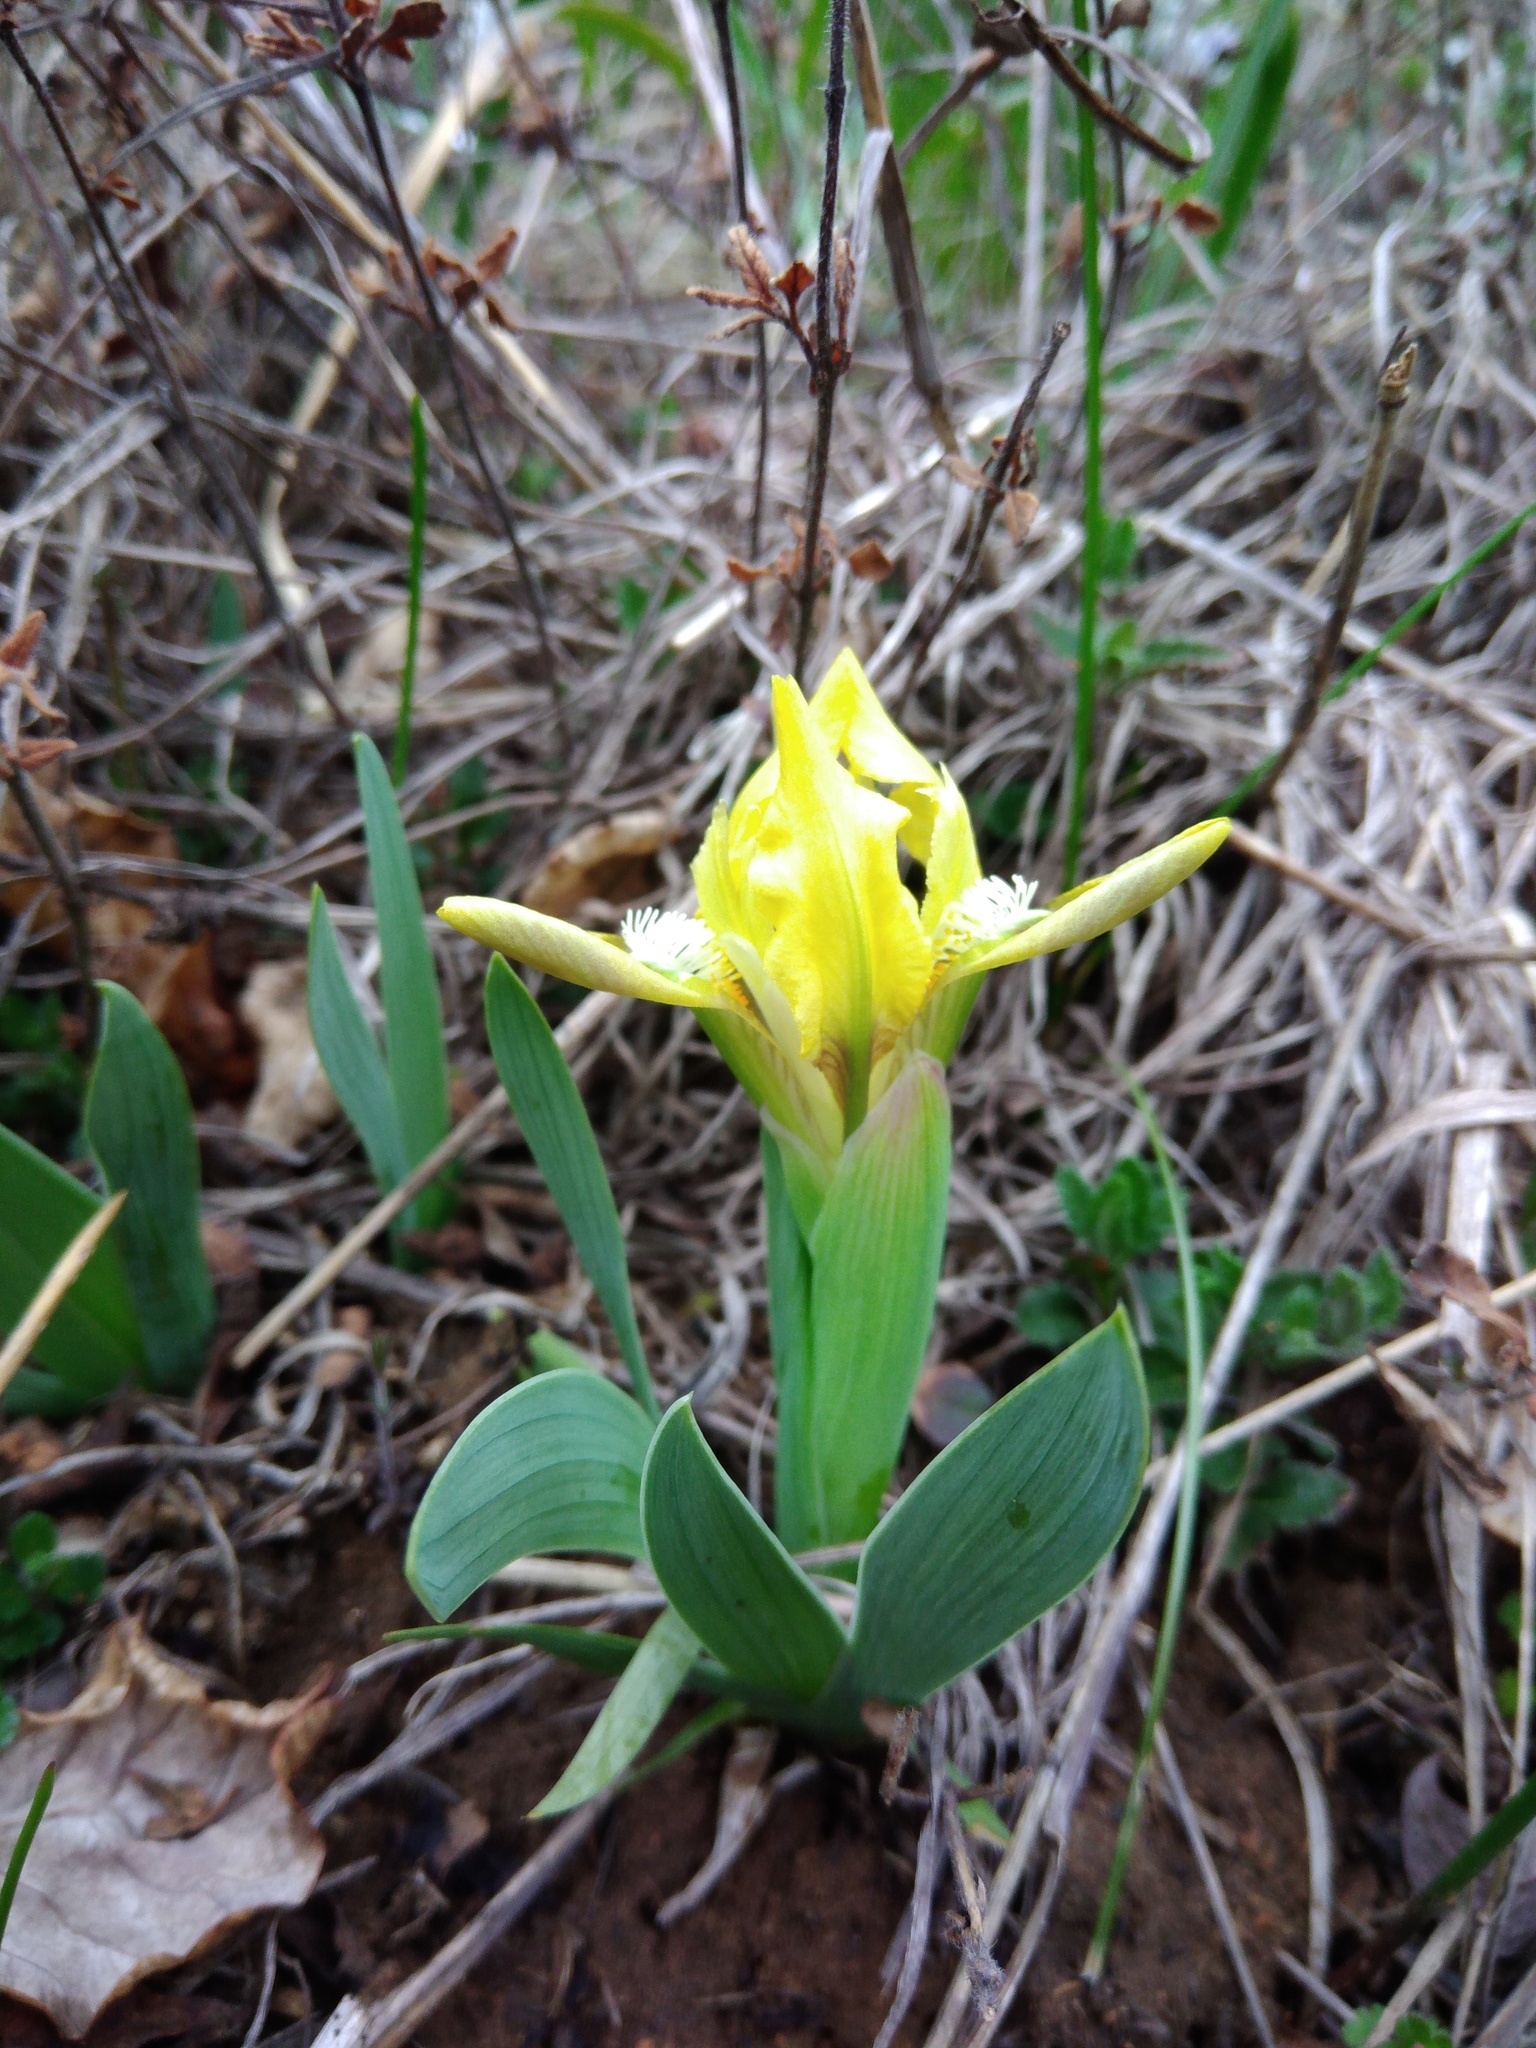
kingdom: Plantae
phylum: Tracheophyta
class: Liliopsida
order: Asparagales
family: Iridaceae
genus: Iris
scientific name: Iris pumila
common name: Dwarf iris
